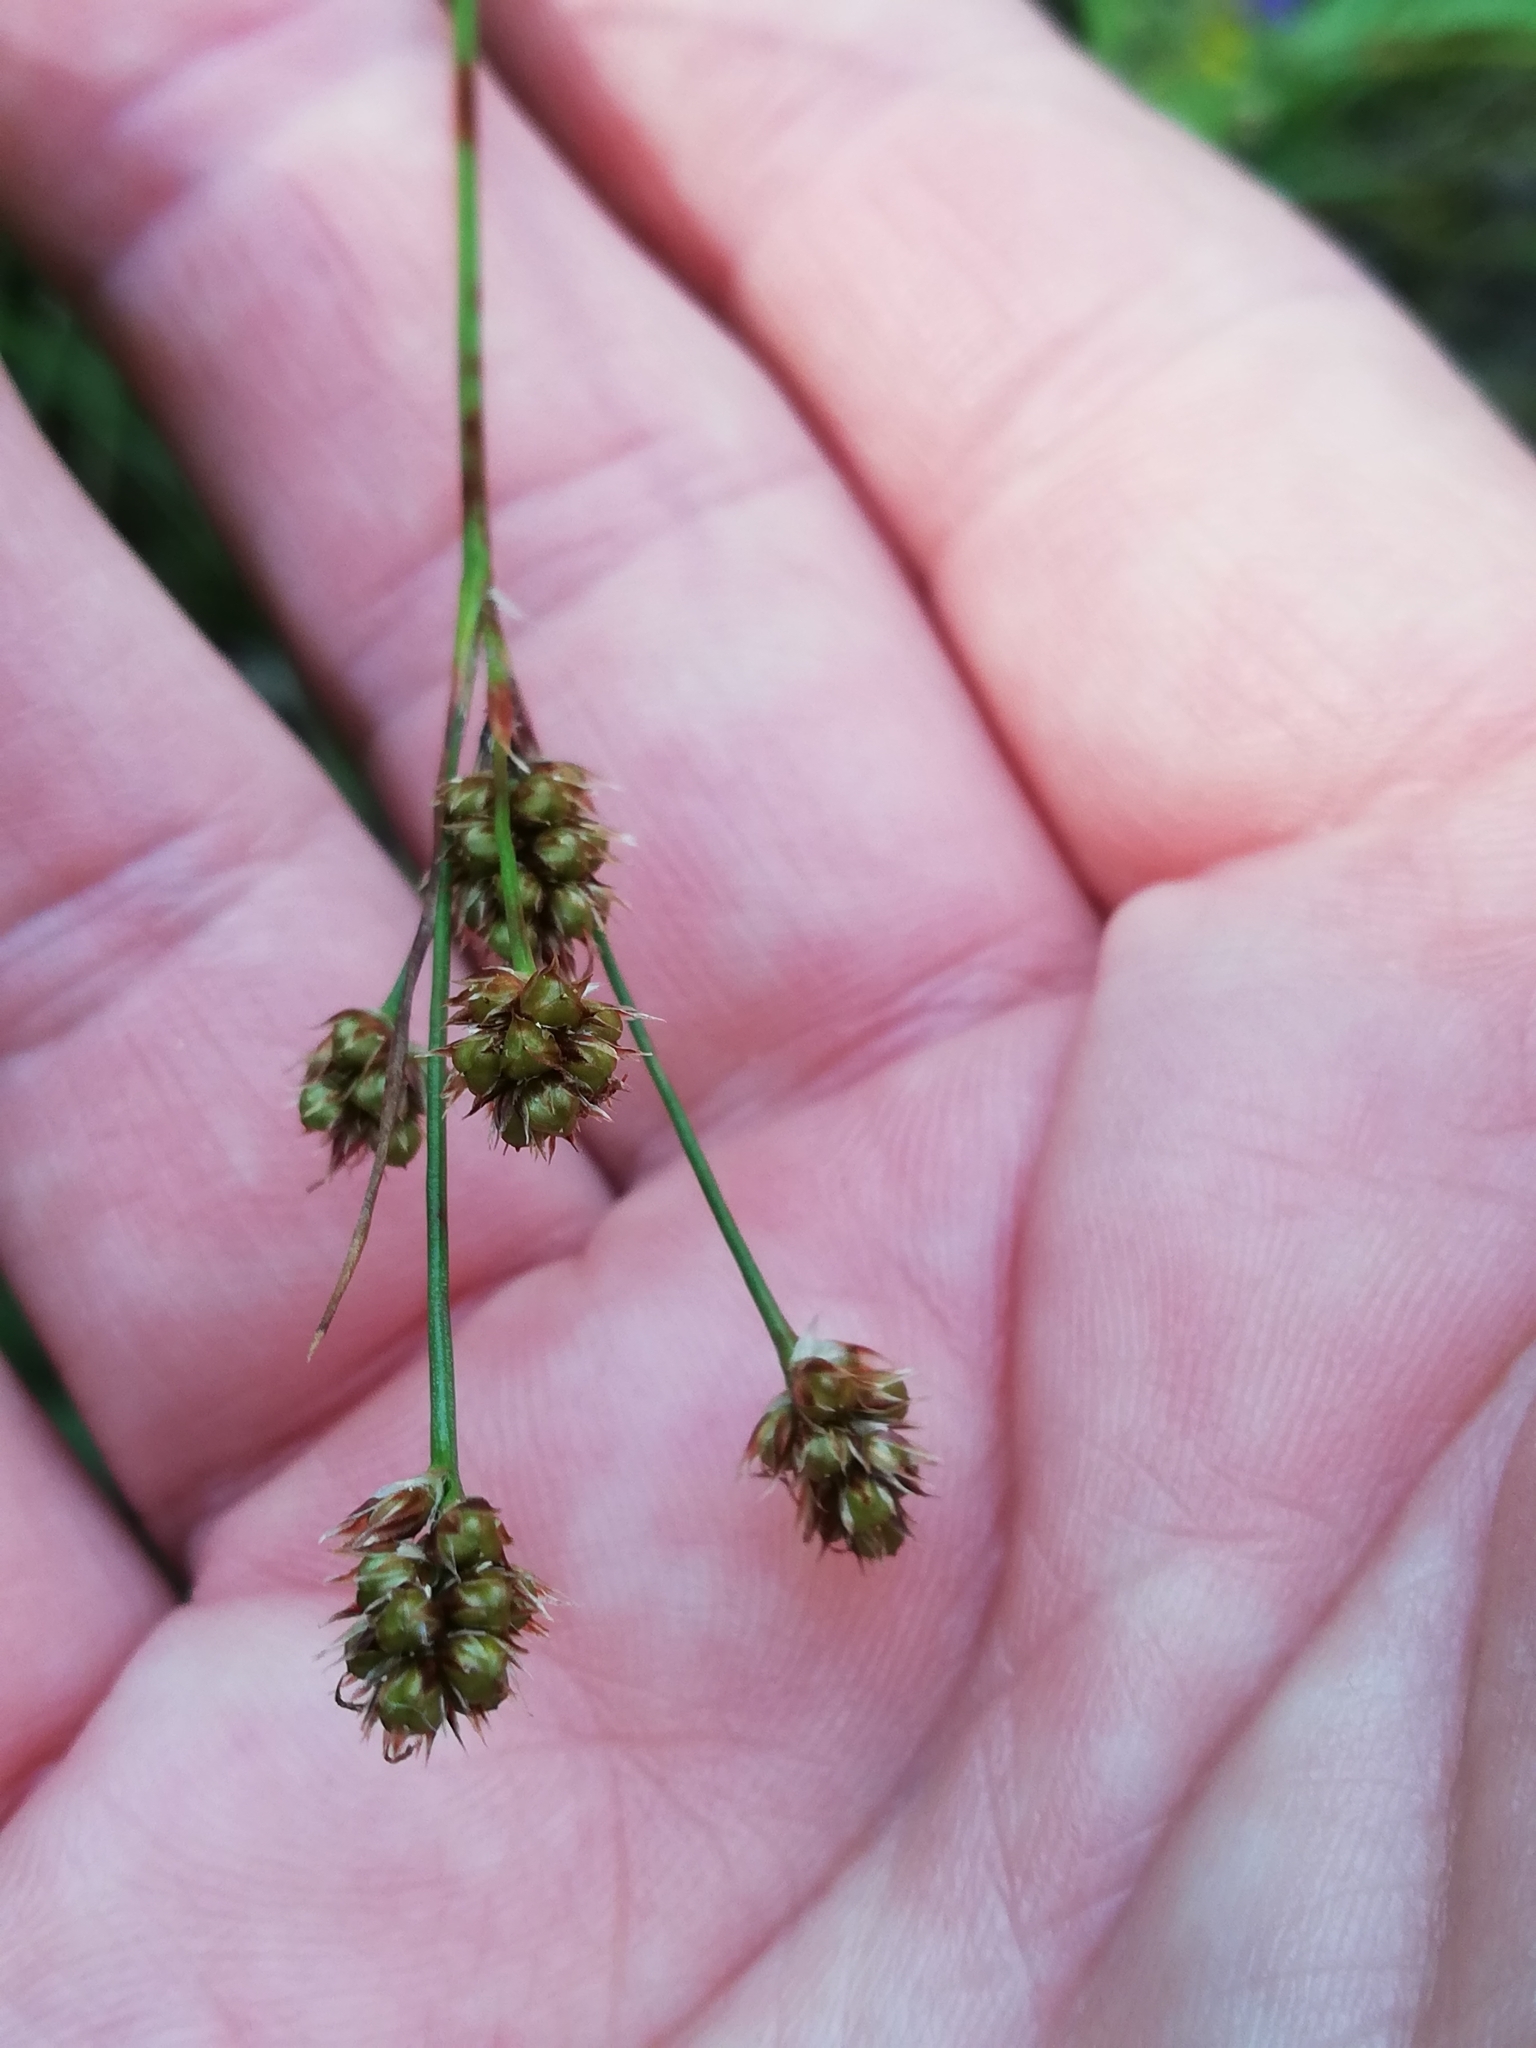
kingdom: Plantae
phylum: Tracheophyta
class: Liliopsida
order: Poales
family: Juncaceae
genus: Luzula
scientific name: Luzula multiflora
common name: Heath wood-rush
